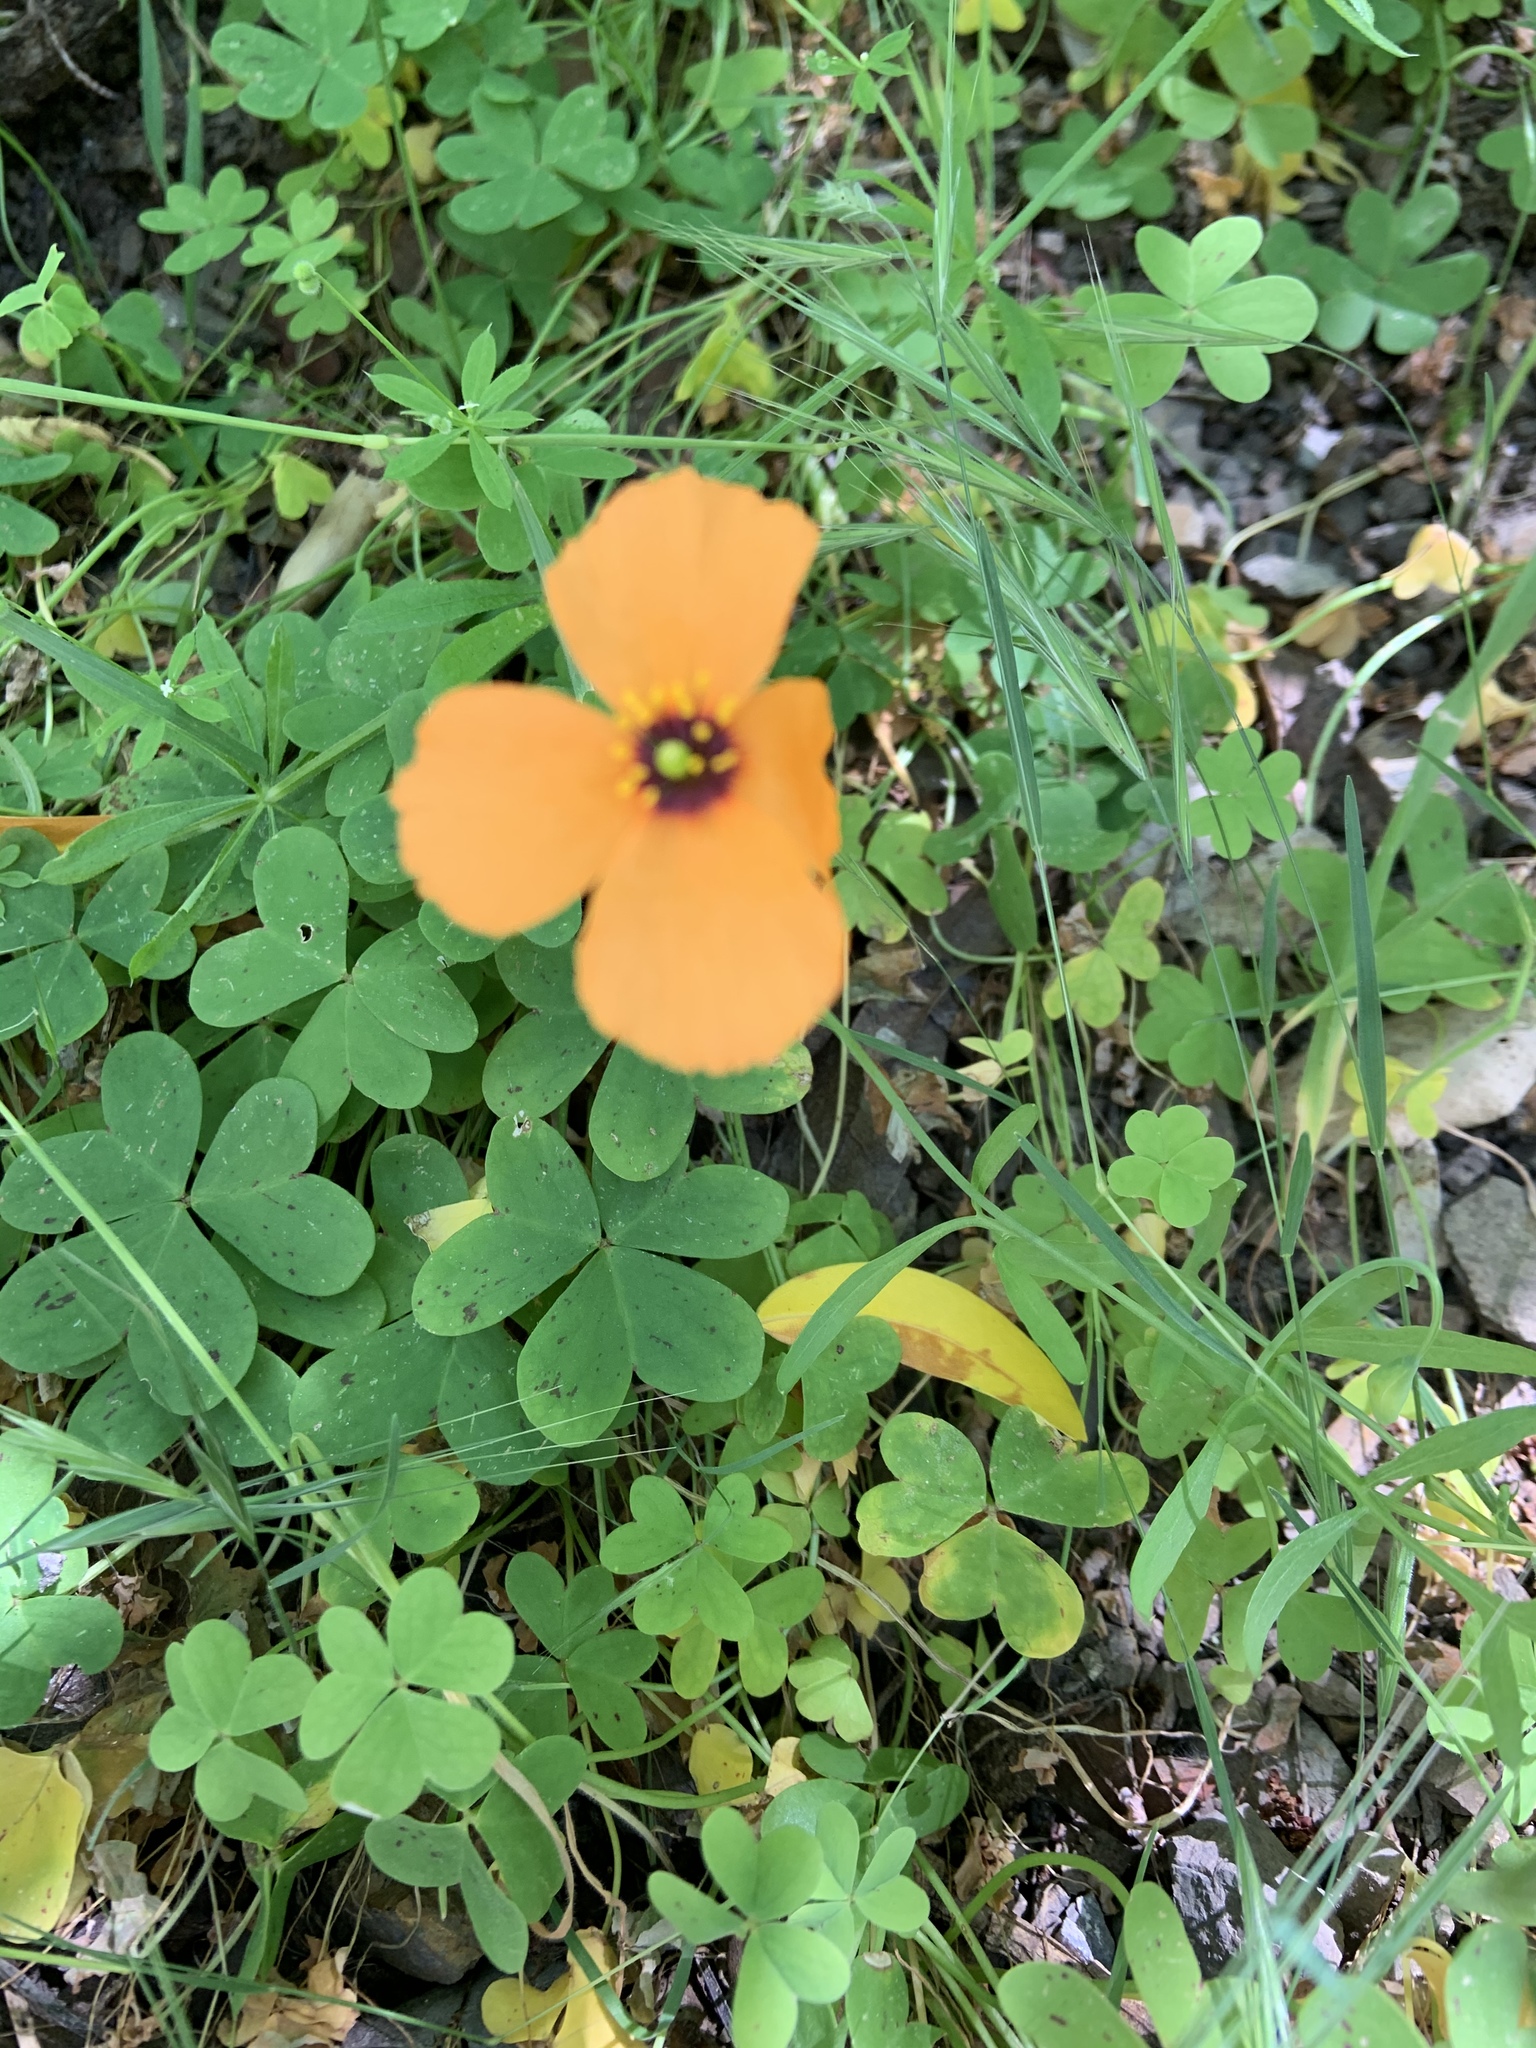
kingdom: Plantae
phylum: Tracheophyta
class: Magnoliopsida
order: Ranunculales
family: Papaveraceae
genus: Stylomecon
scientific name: Stylomecon heterophylla
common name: Flaming-poppy
